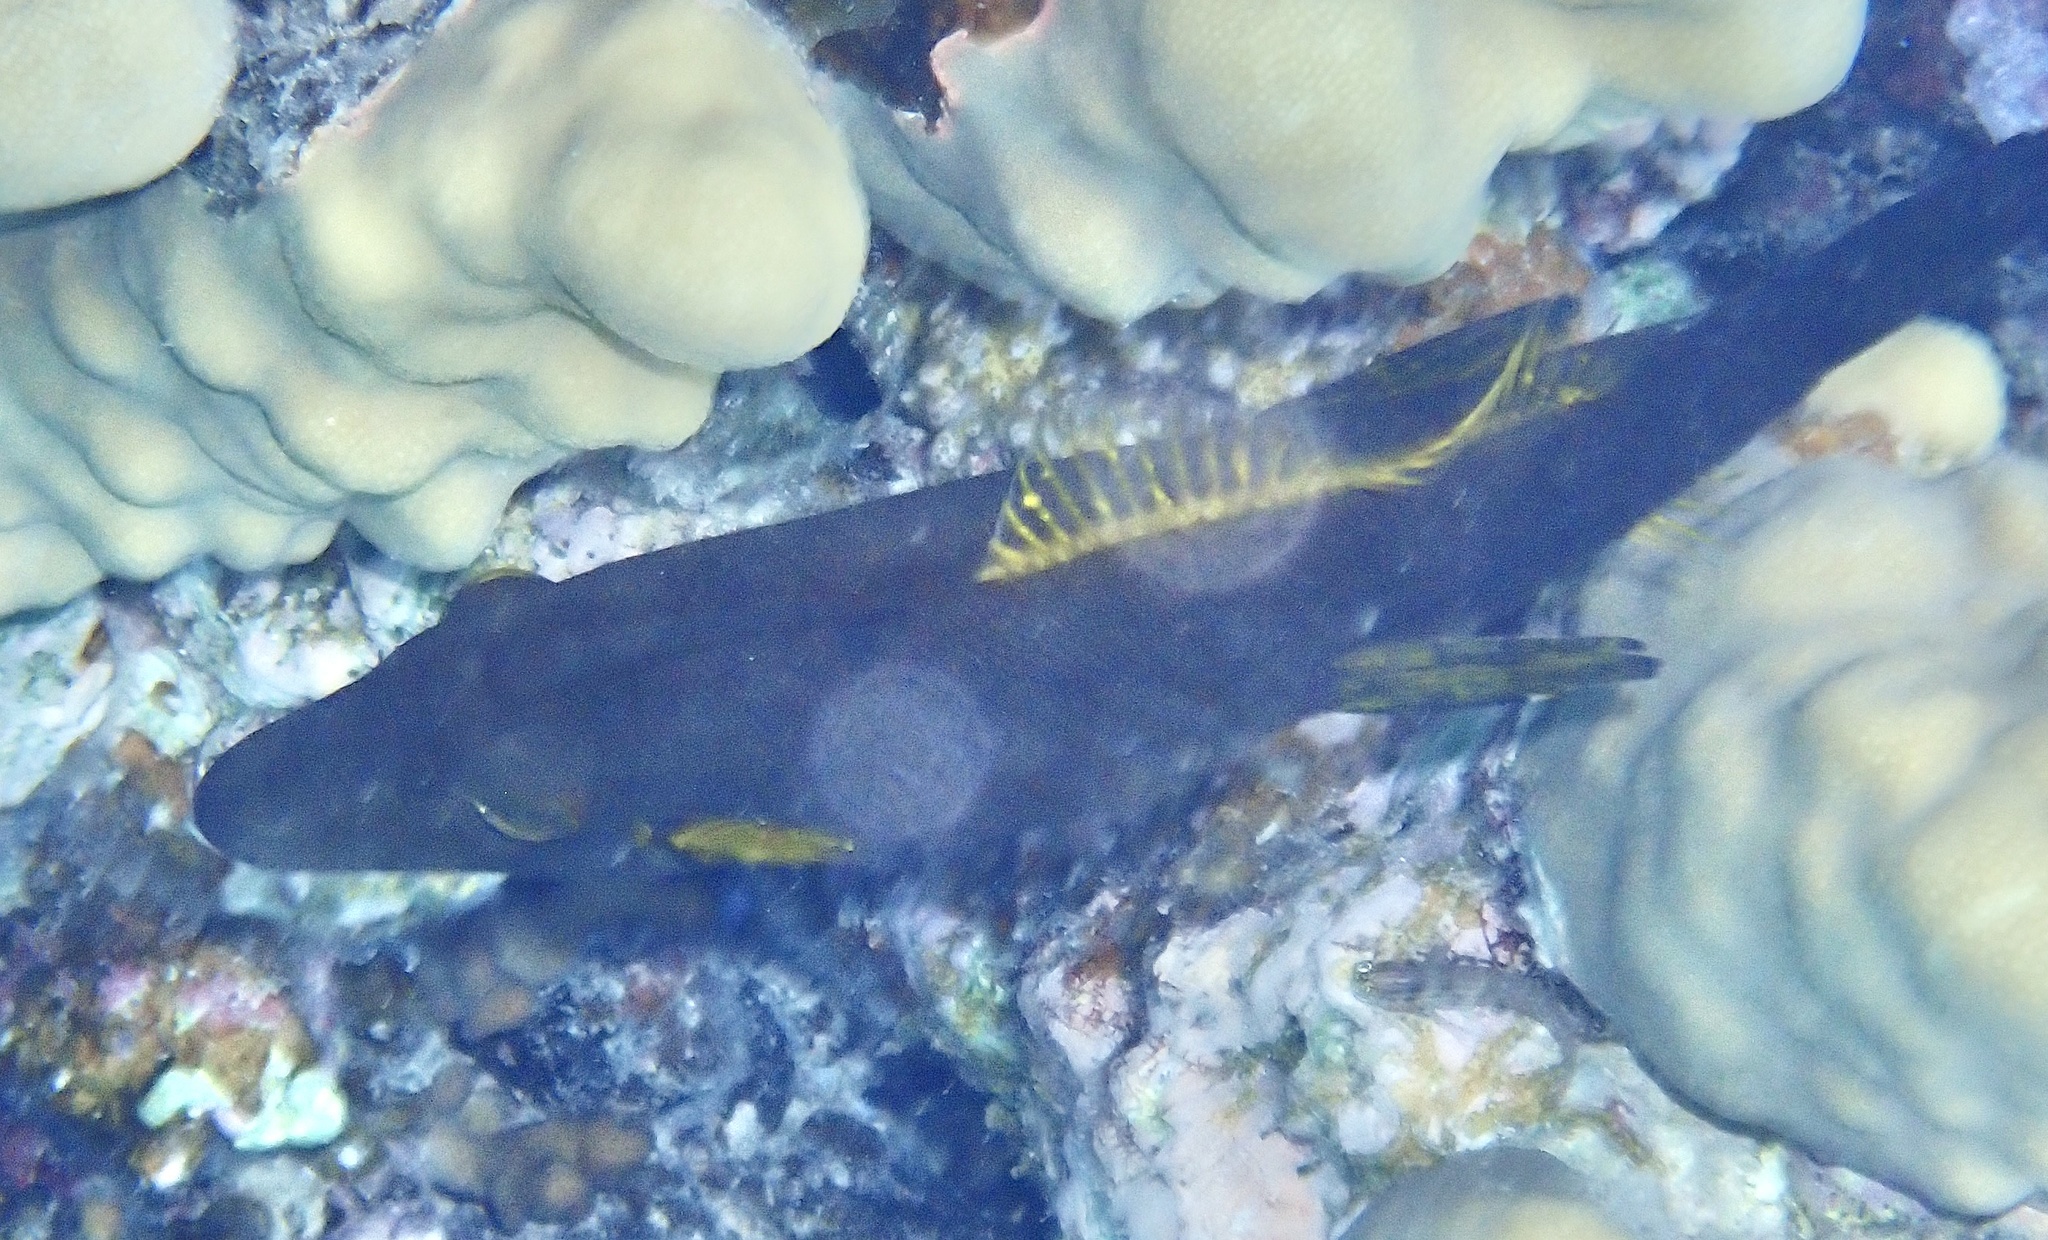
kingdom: Animalia
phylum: Chordata
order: Tetraodontiformes
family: Monacanthidae
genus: Amanses
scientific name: Amanses scopas
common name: Broom filefish
